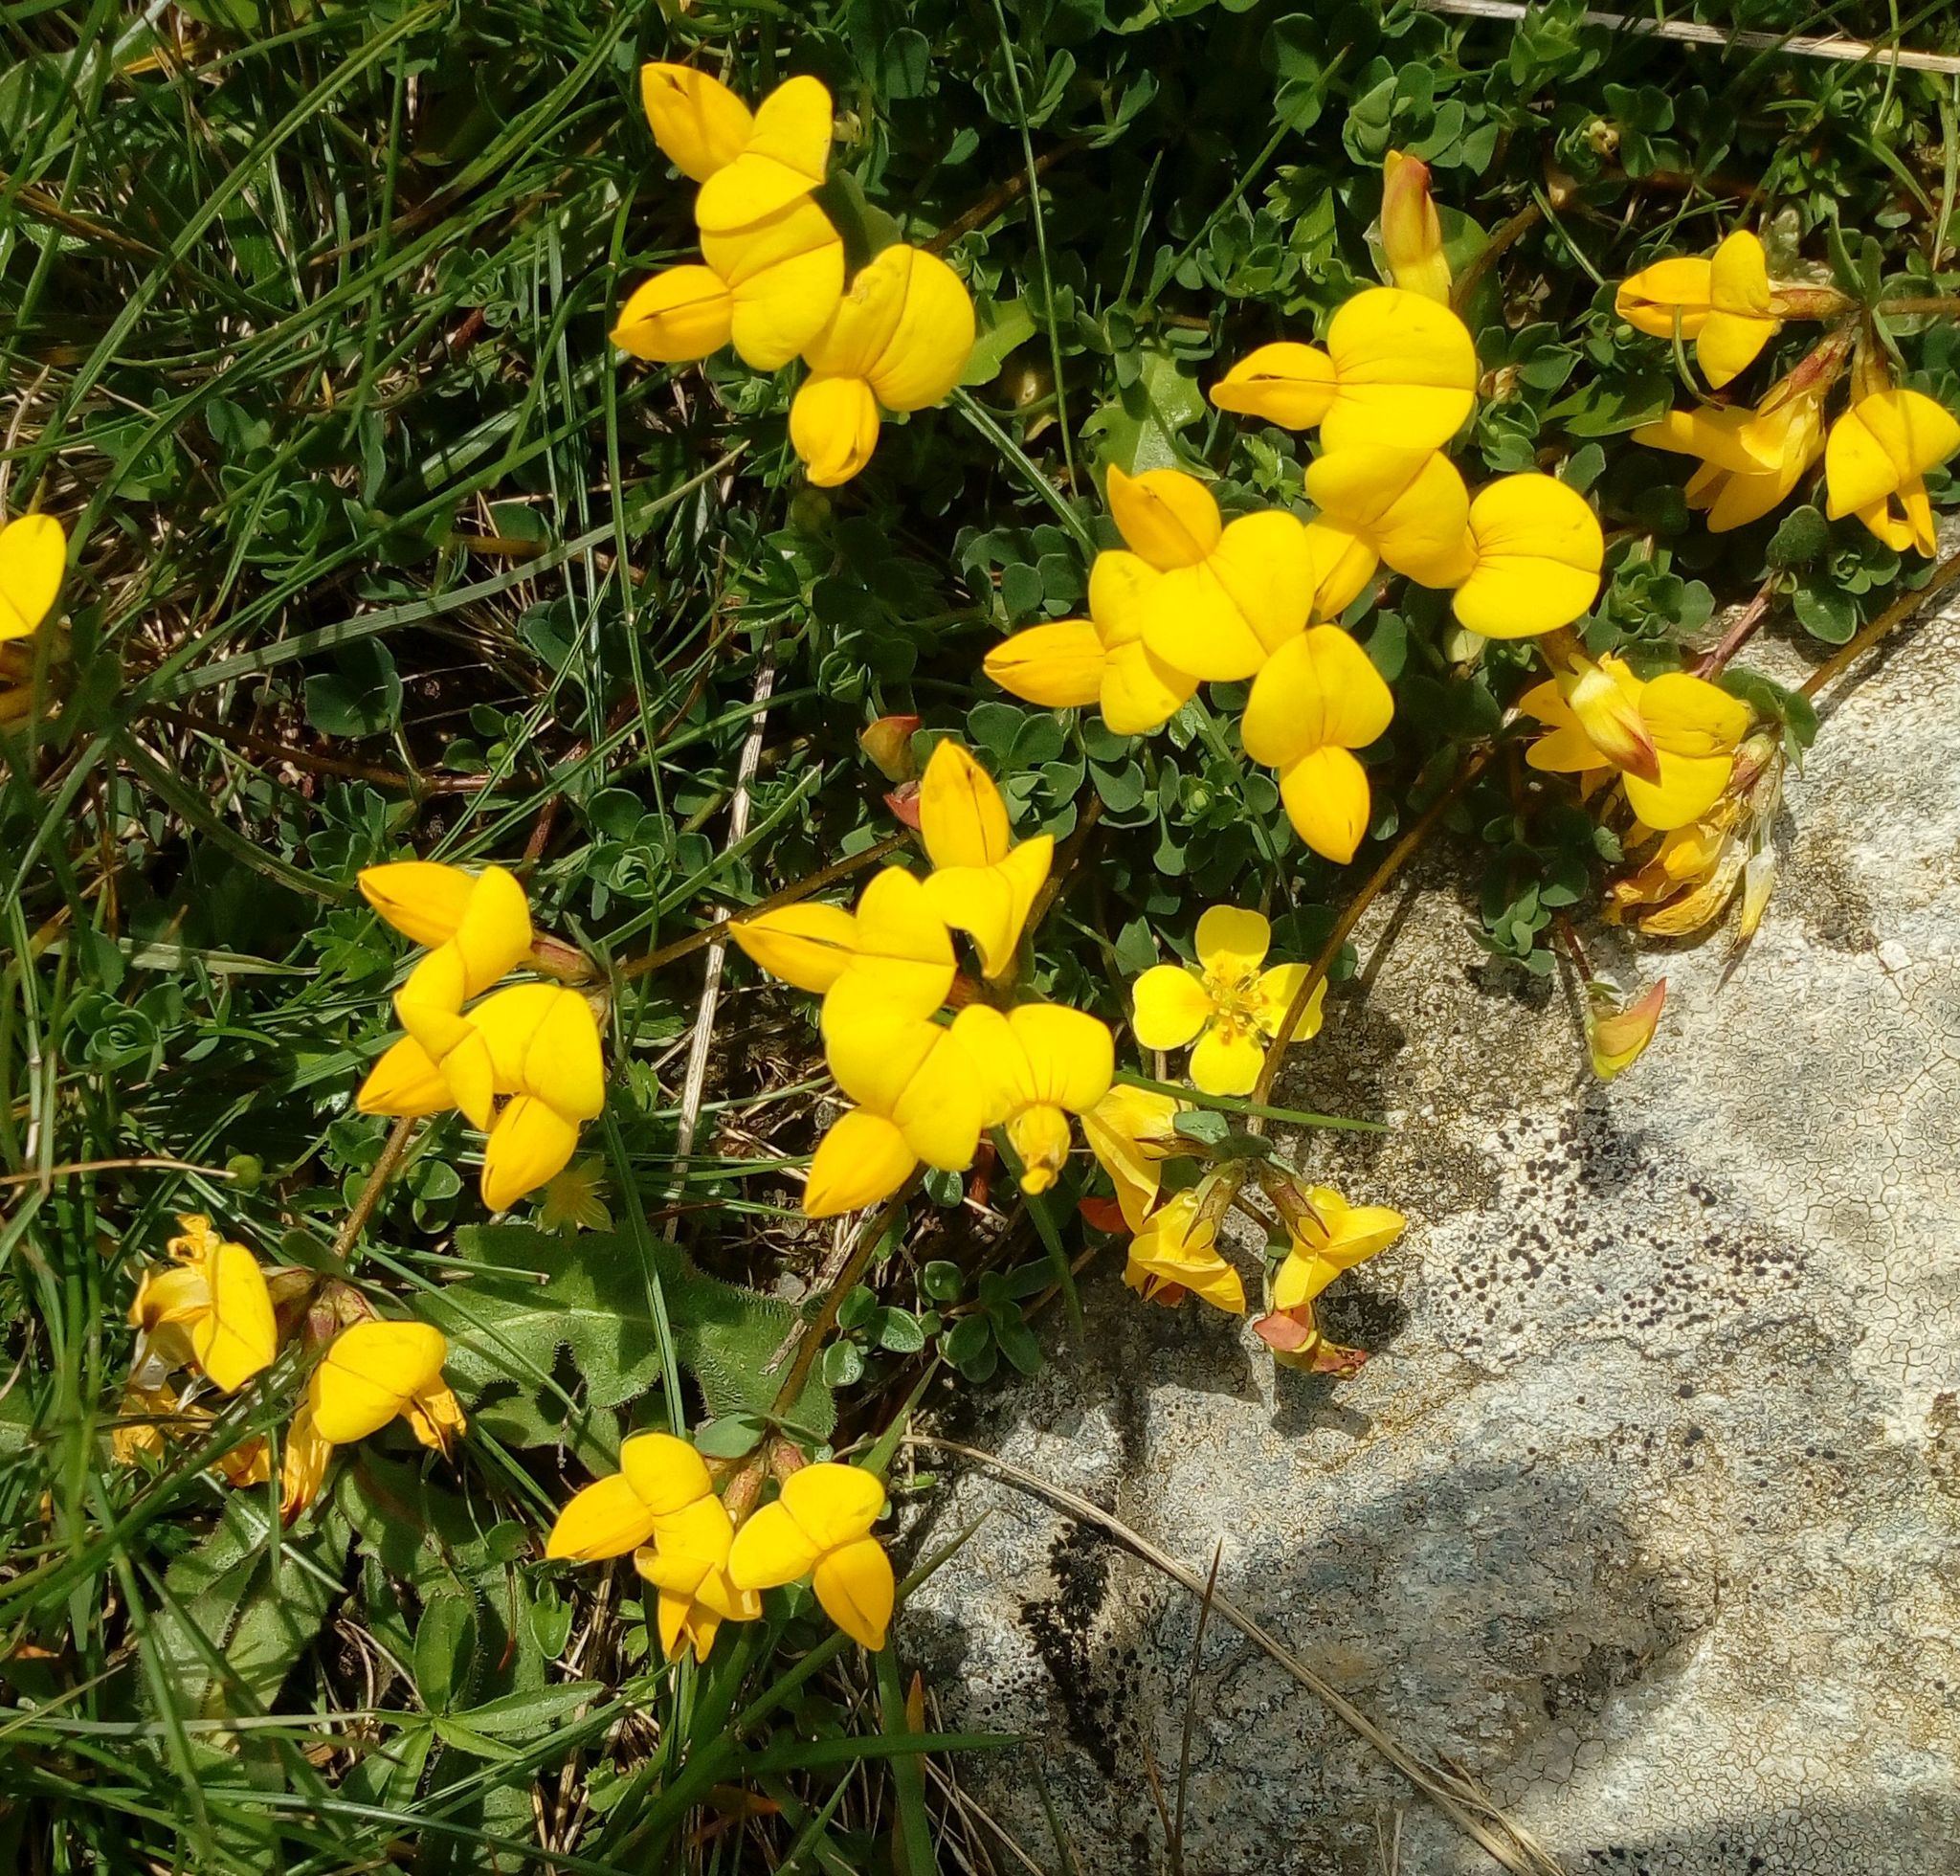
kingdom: Plantae
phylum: Tracheophyta
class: Magnoliopsida
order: Fabales
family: Fabaceae
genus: Lotus
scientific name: Lotus corniculatus
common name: Common bird's-foot-trefoil
